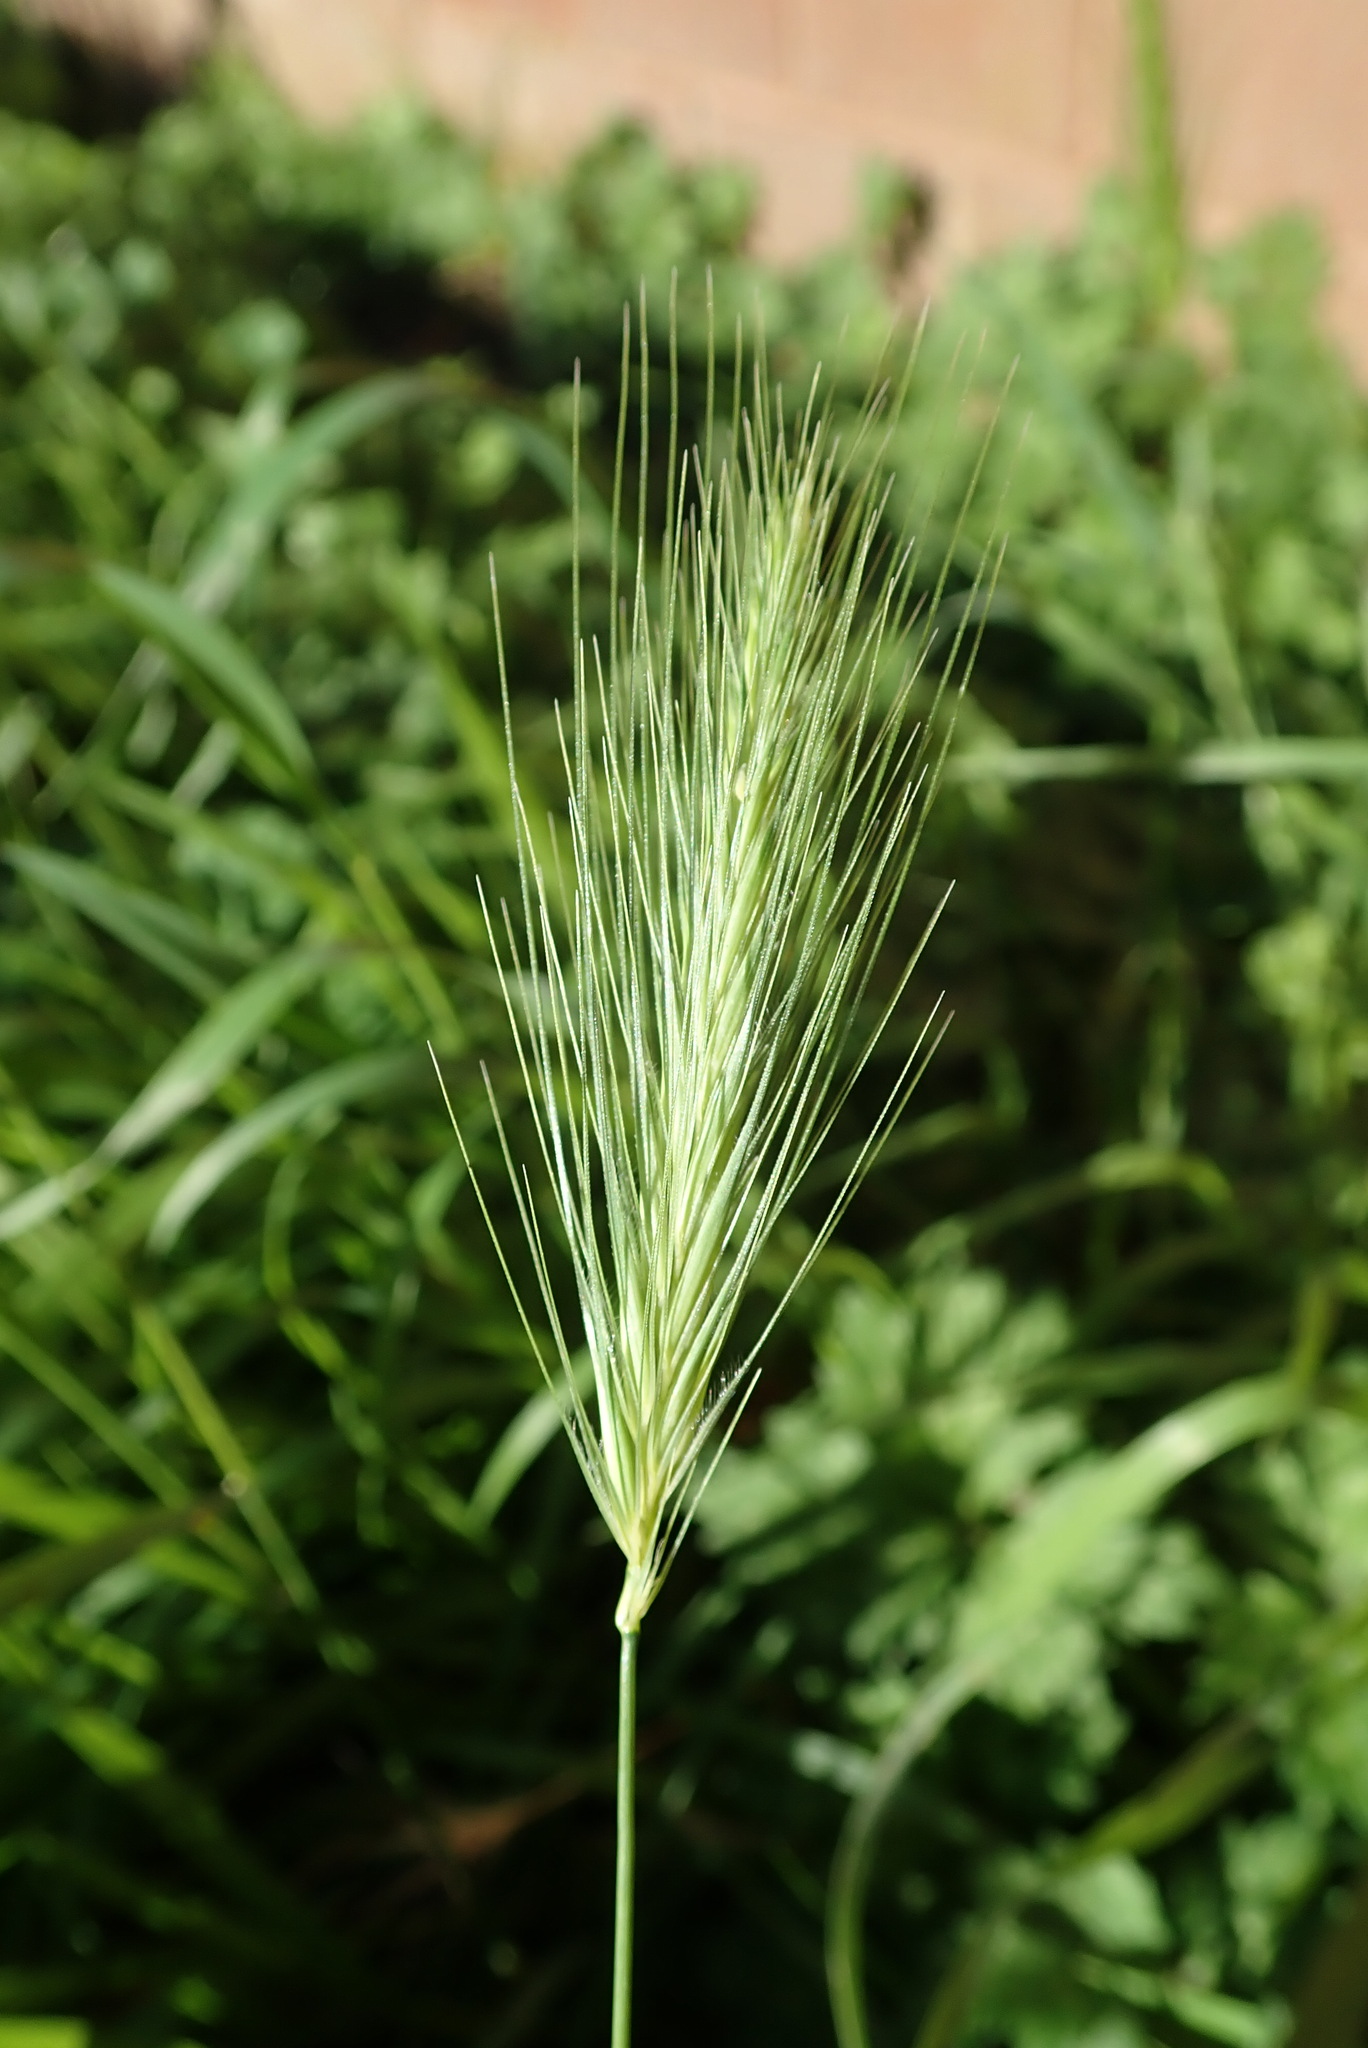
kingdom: Plantae
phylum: Tracheophyta
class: Liliopsida
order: Poales
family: Poaceae
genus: Hordeum
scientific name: Hordeum murinum
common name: Wall barley
